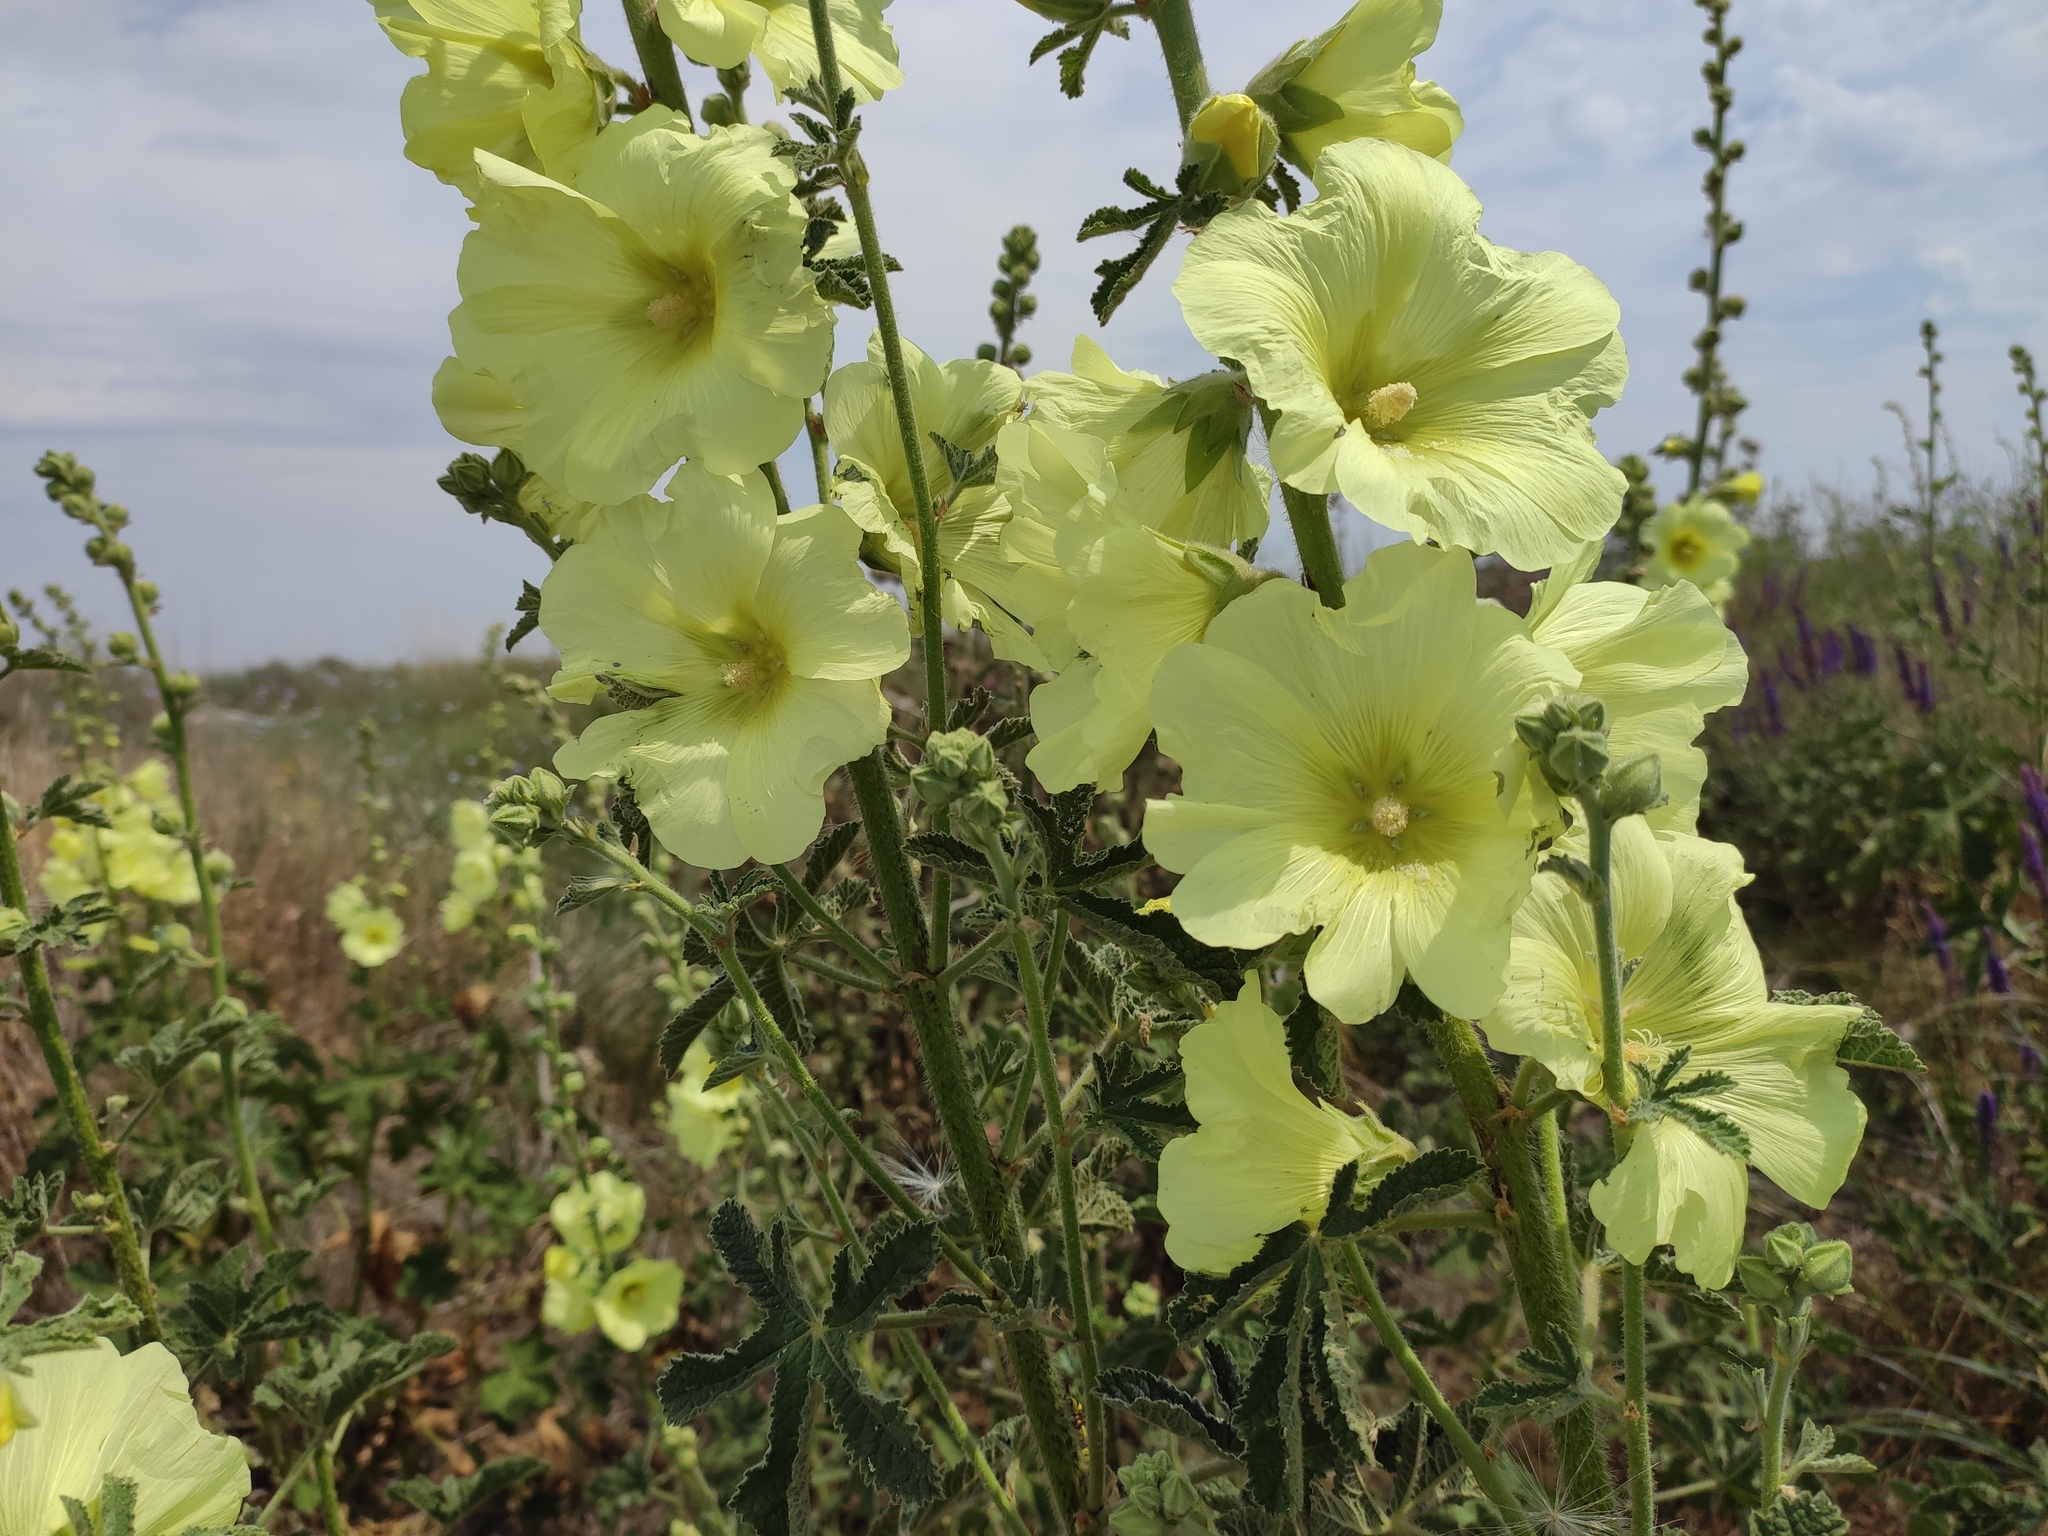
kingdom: Plantae
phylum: Tracheophyta
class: Magnoliopsida
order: Malvales
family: Malvaceae
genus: Alcea
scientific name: Alcea rugosa
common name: Russian hollyhock
